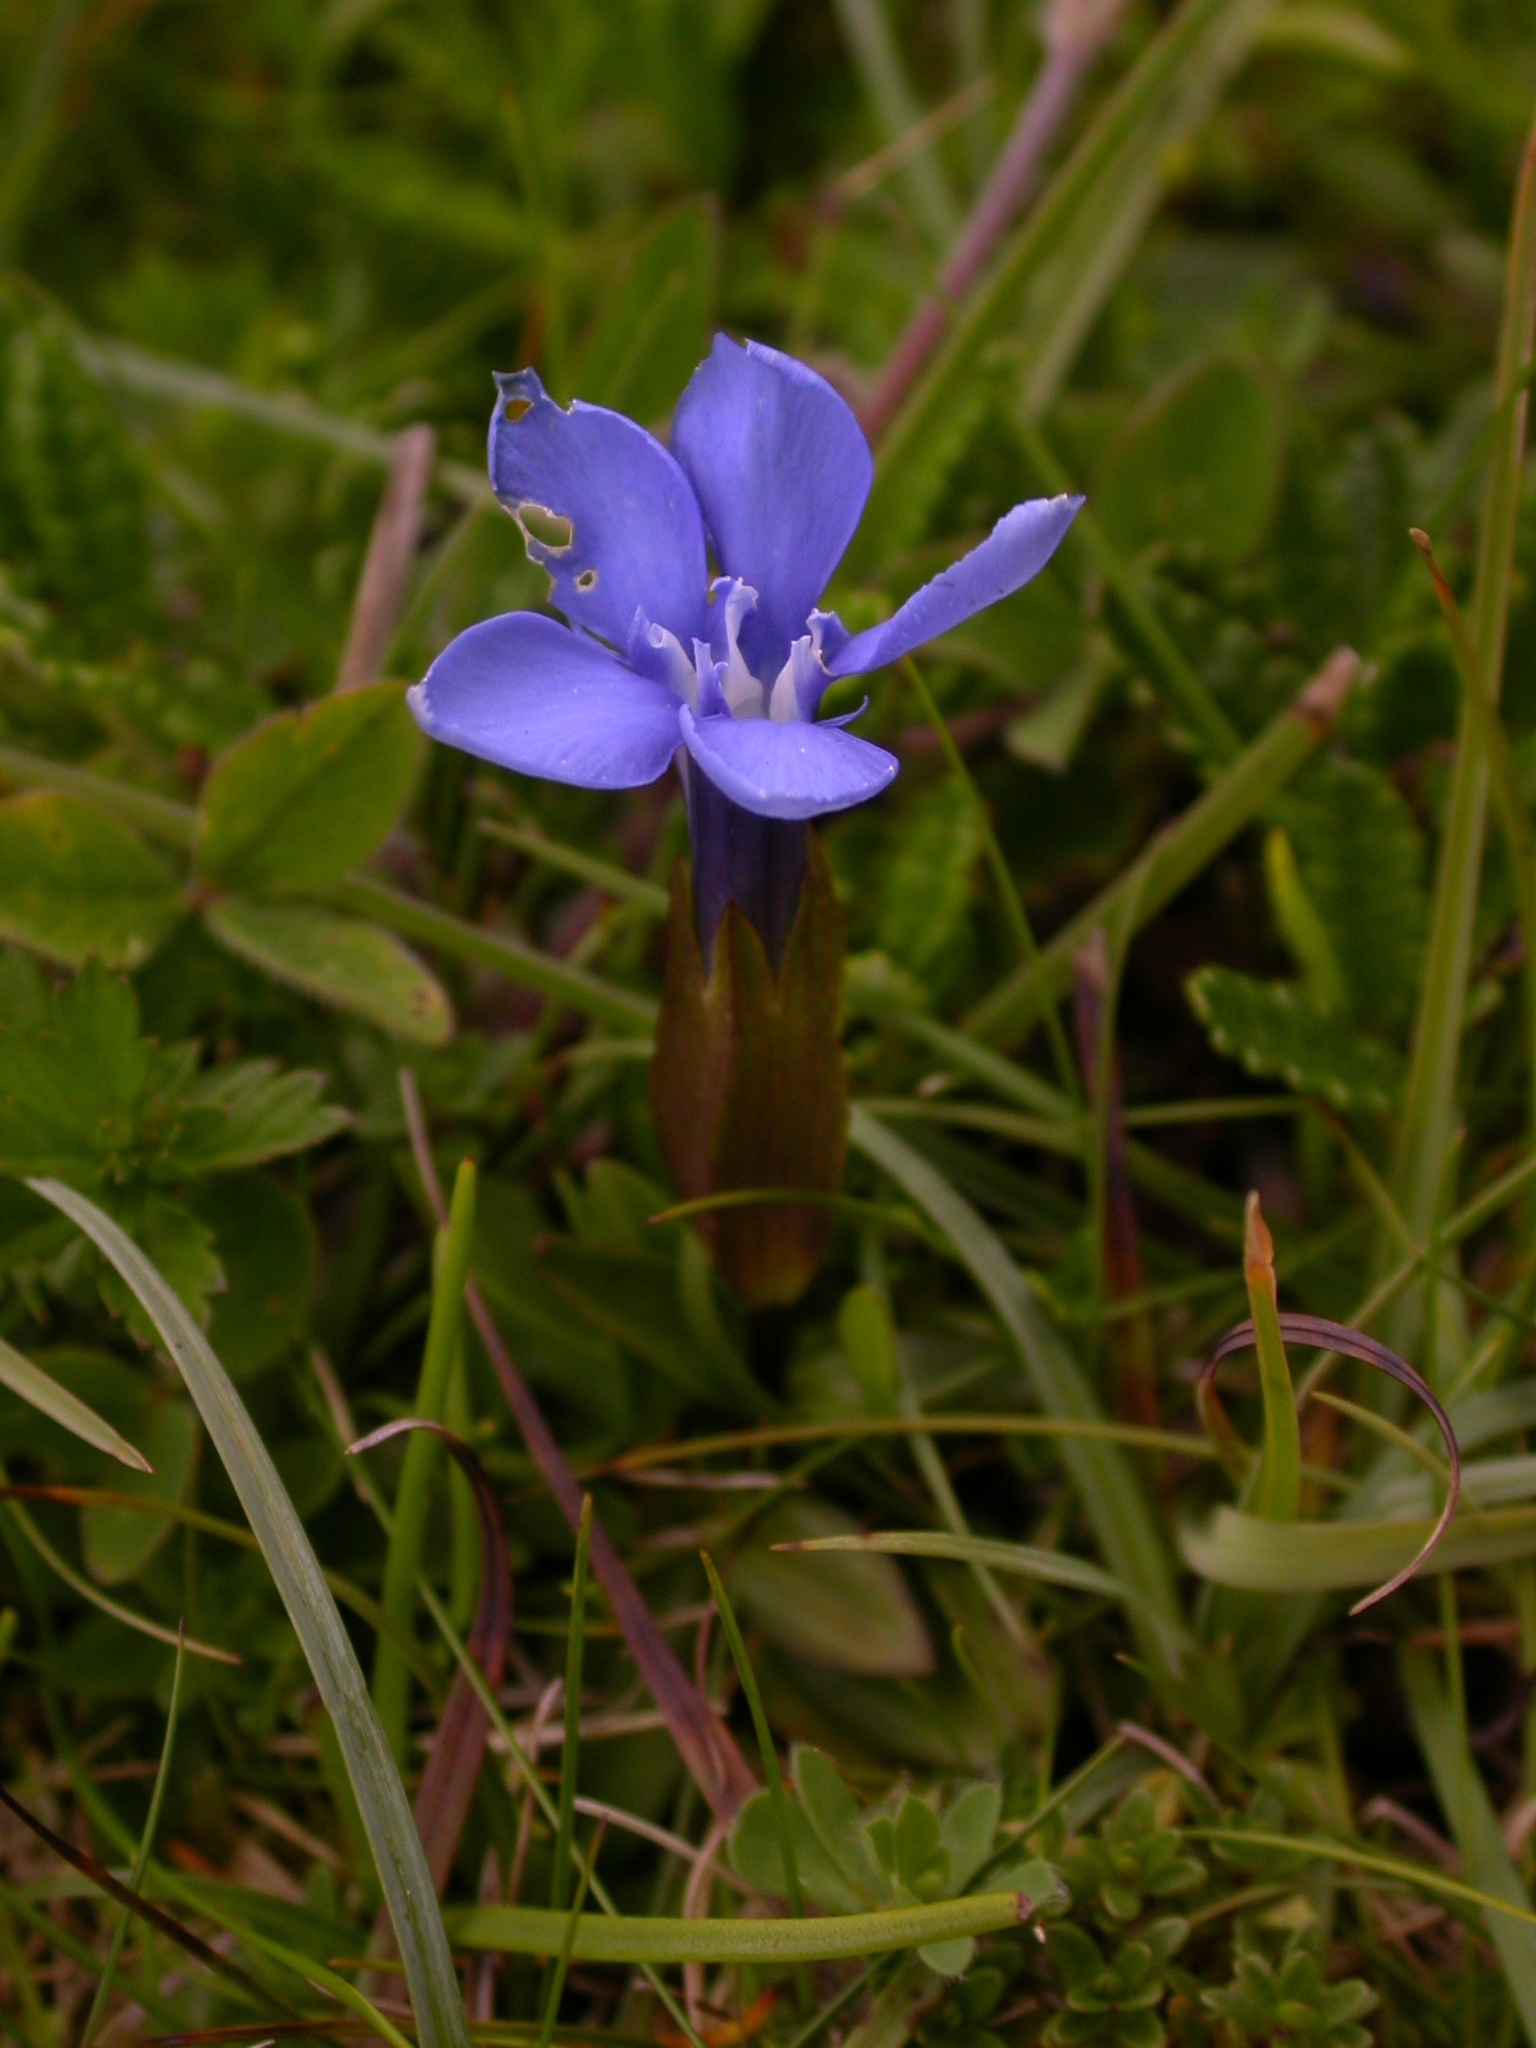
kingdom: Plantae
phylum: Tracheophyta
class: Magnoliopsida
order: Gentianales
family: Gentianaceae
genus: Gentiana
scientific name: Gentiana verna
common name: Spring gentian
